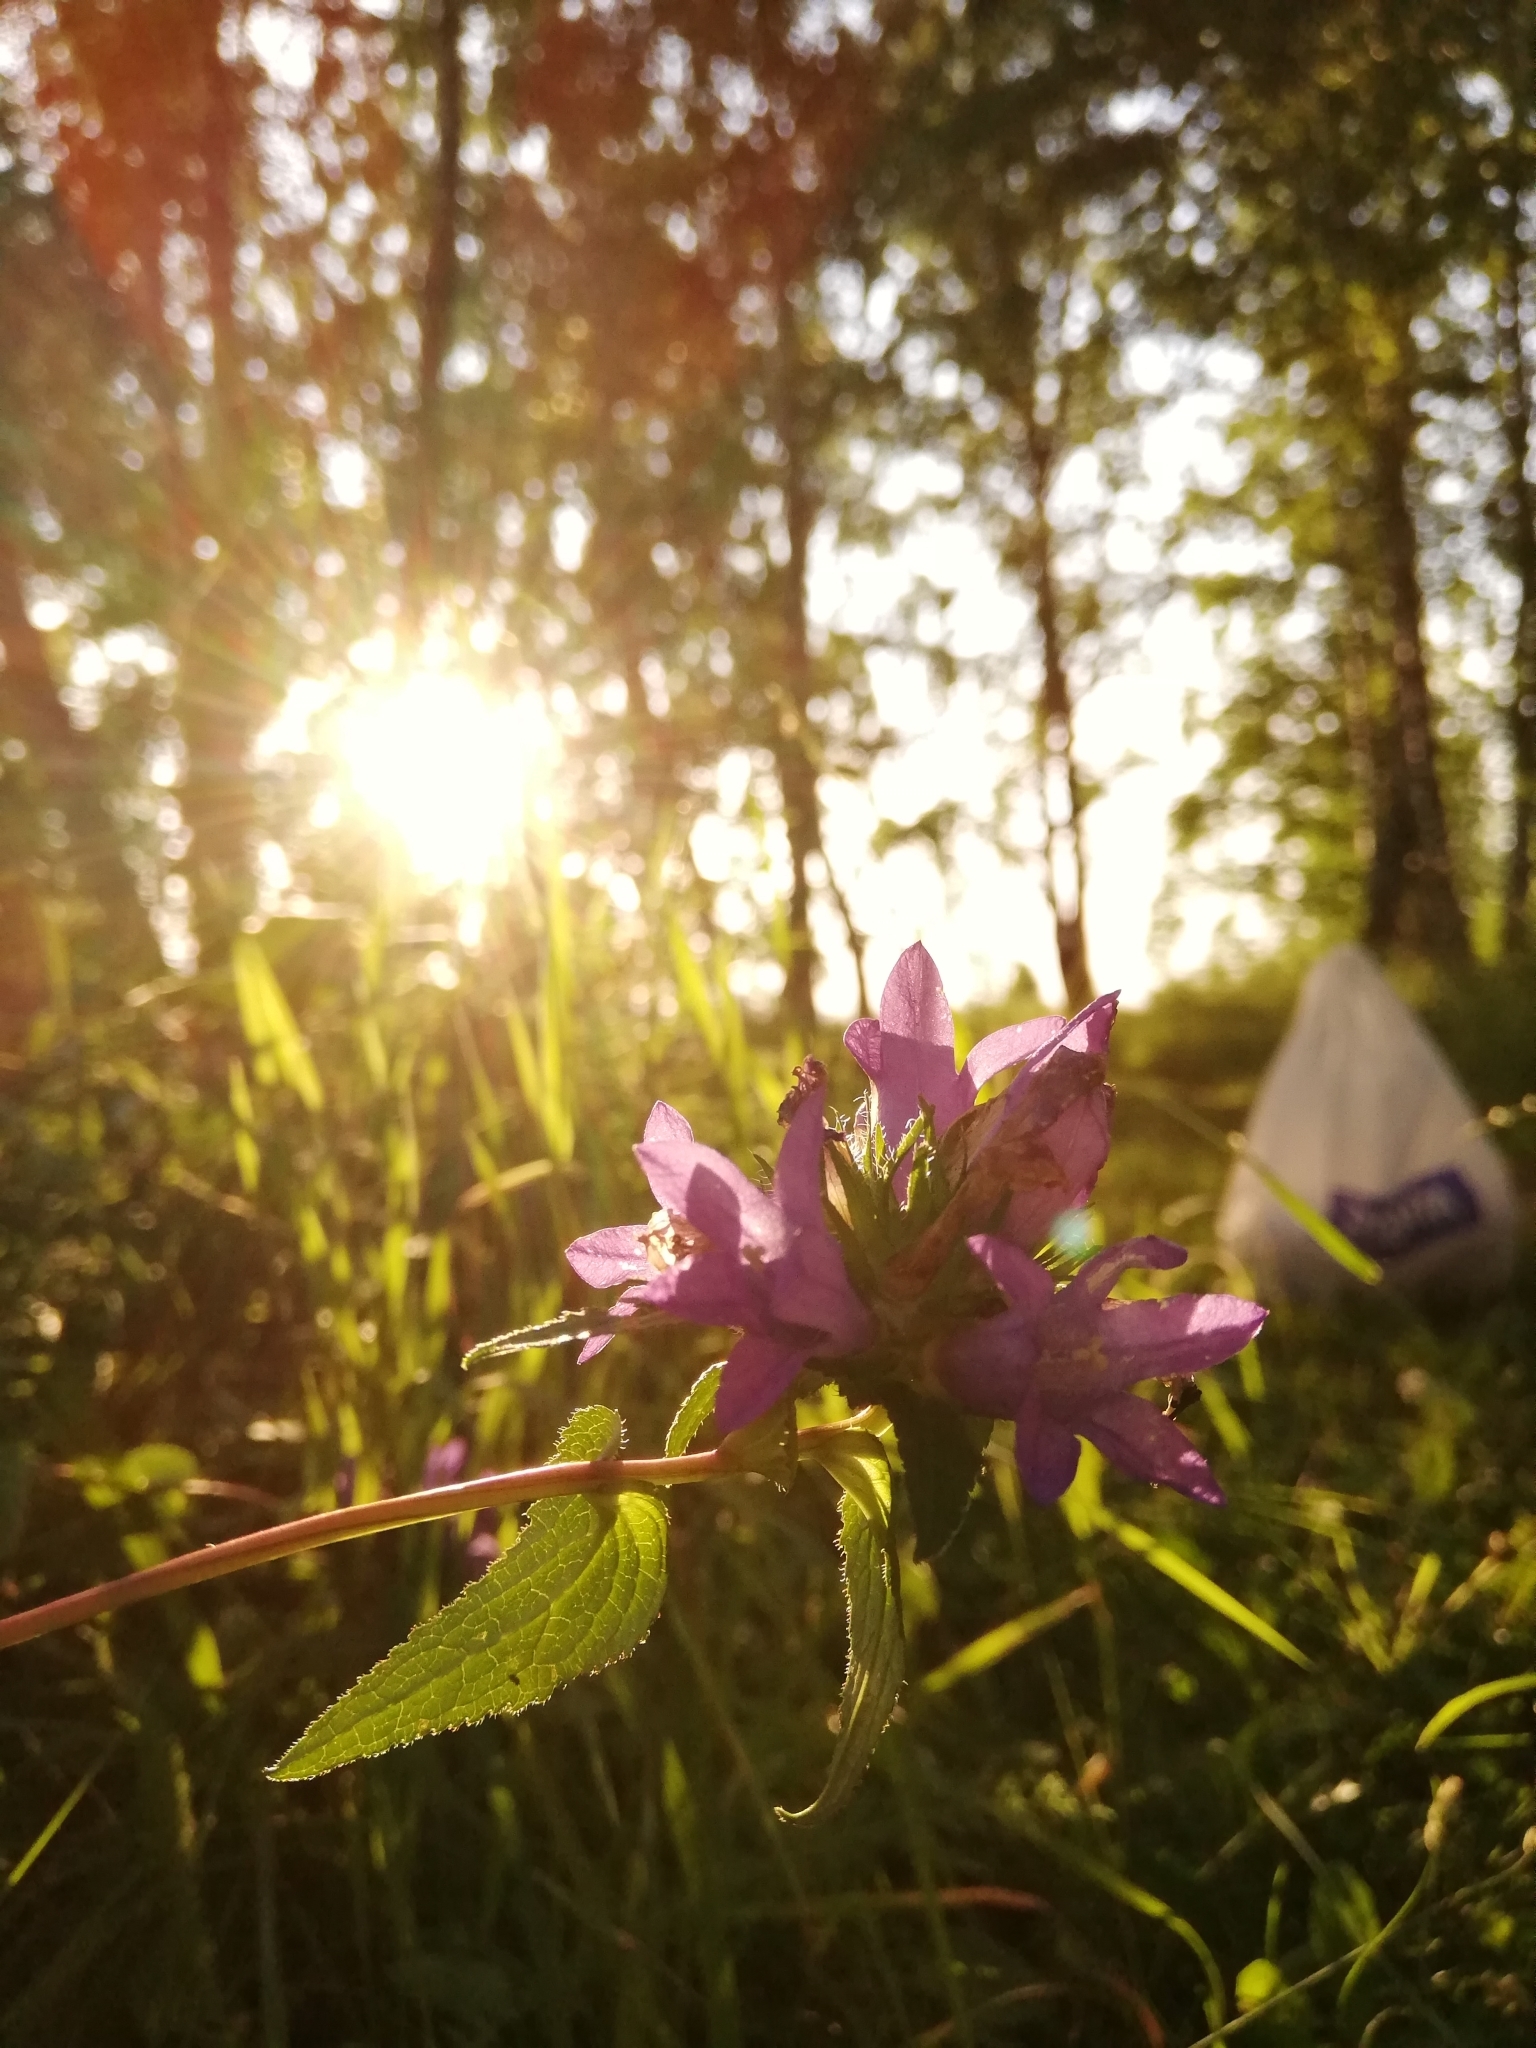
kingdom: Plantae
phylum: Tracheophyta
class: Magnoliopsida
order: Asterales
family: Campanulaceae
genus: Campanula
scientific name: Campanula glomerata
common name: Clustered bellflower
